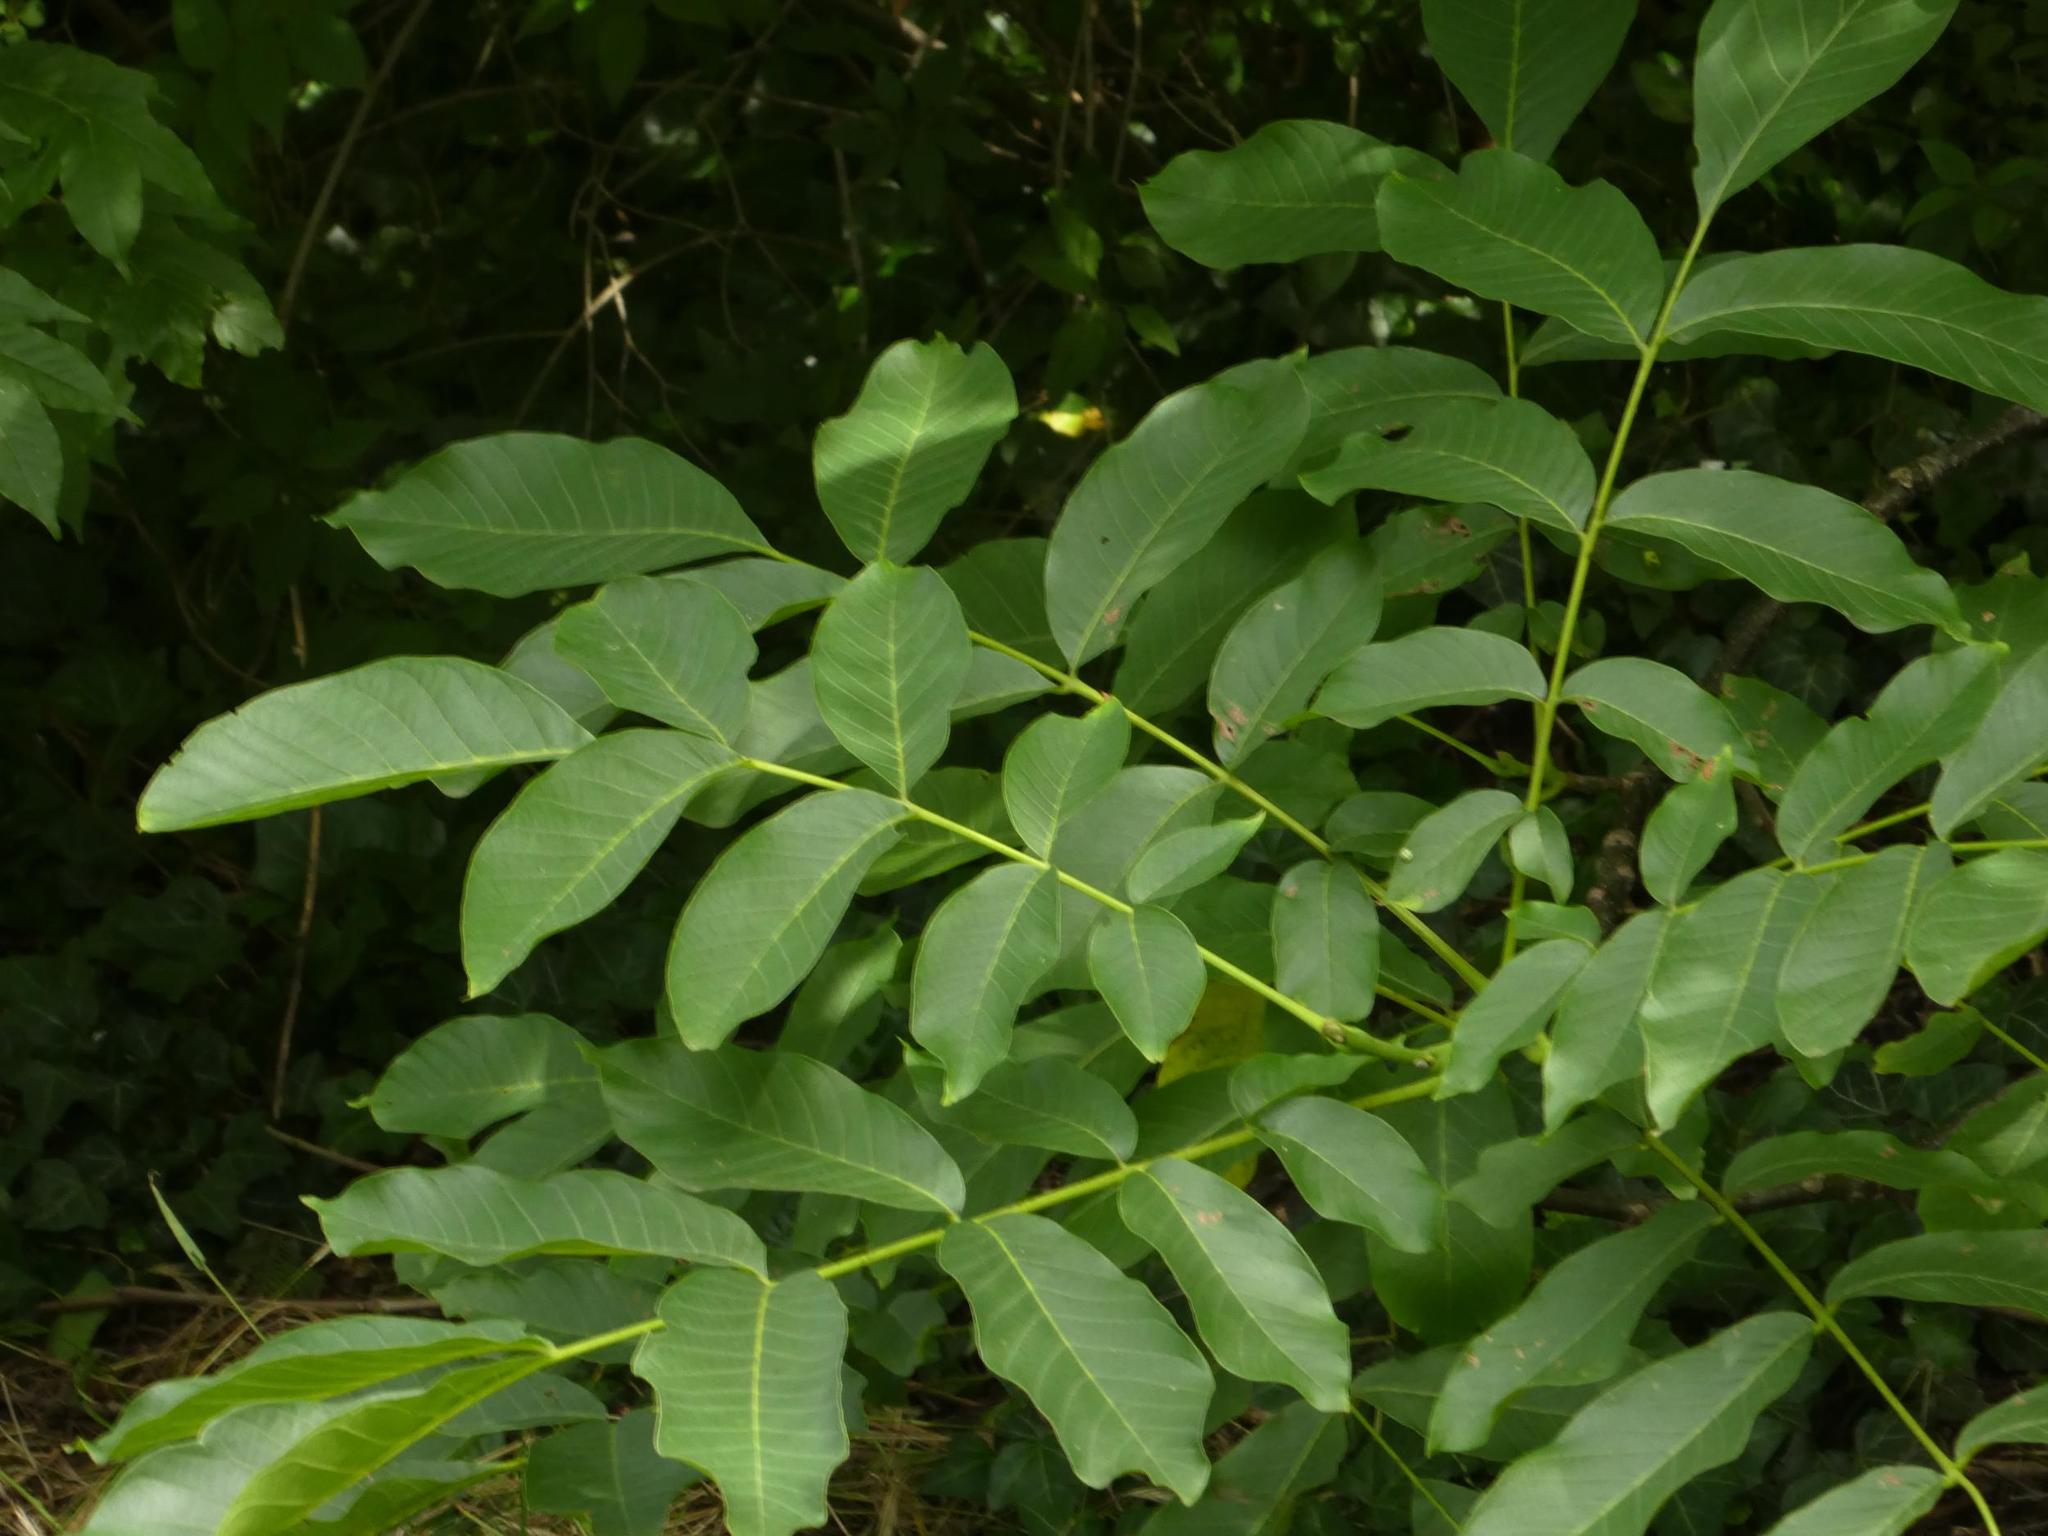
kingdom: Plantae
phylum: Tracheophyta
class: Magnoliopsida
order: Fagales
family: Juglandaceae
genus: Juglans
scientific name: Juglans regia
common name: Walnut
